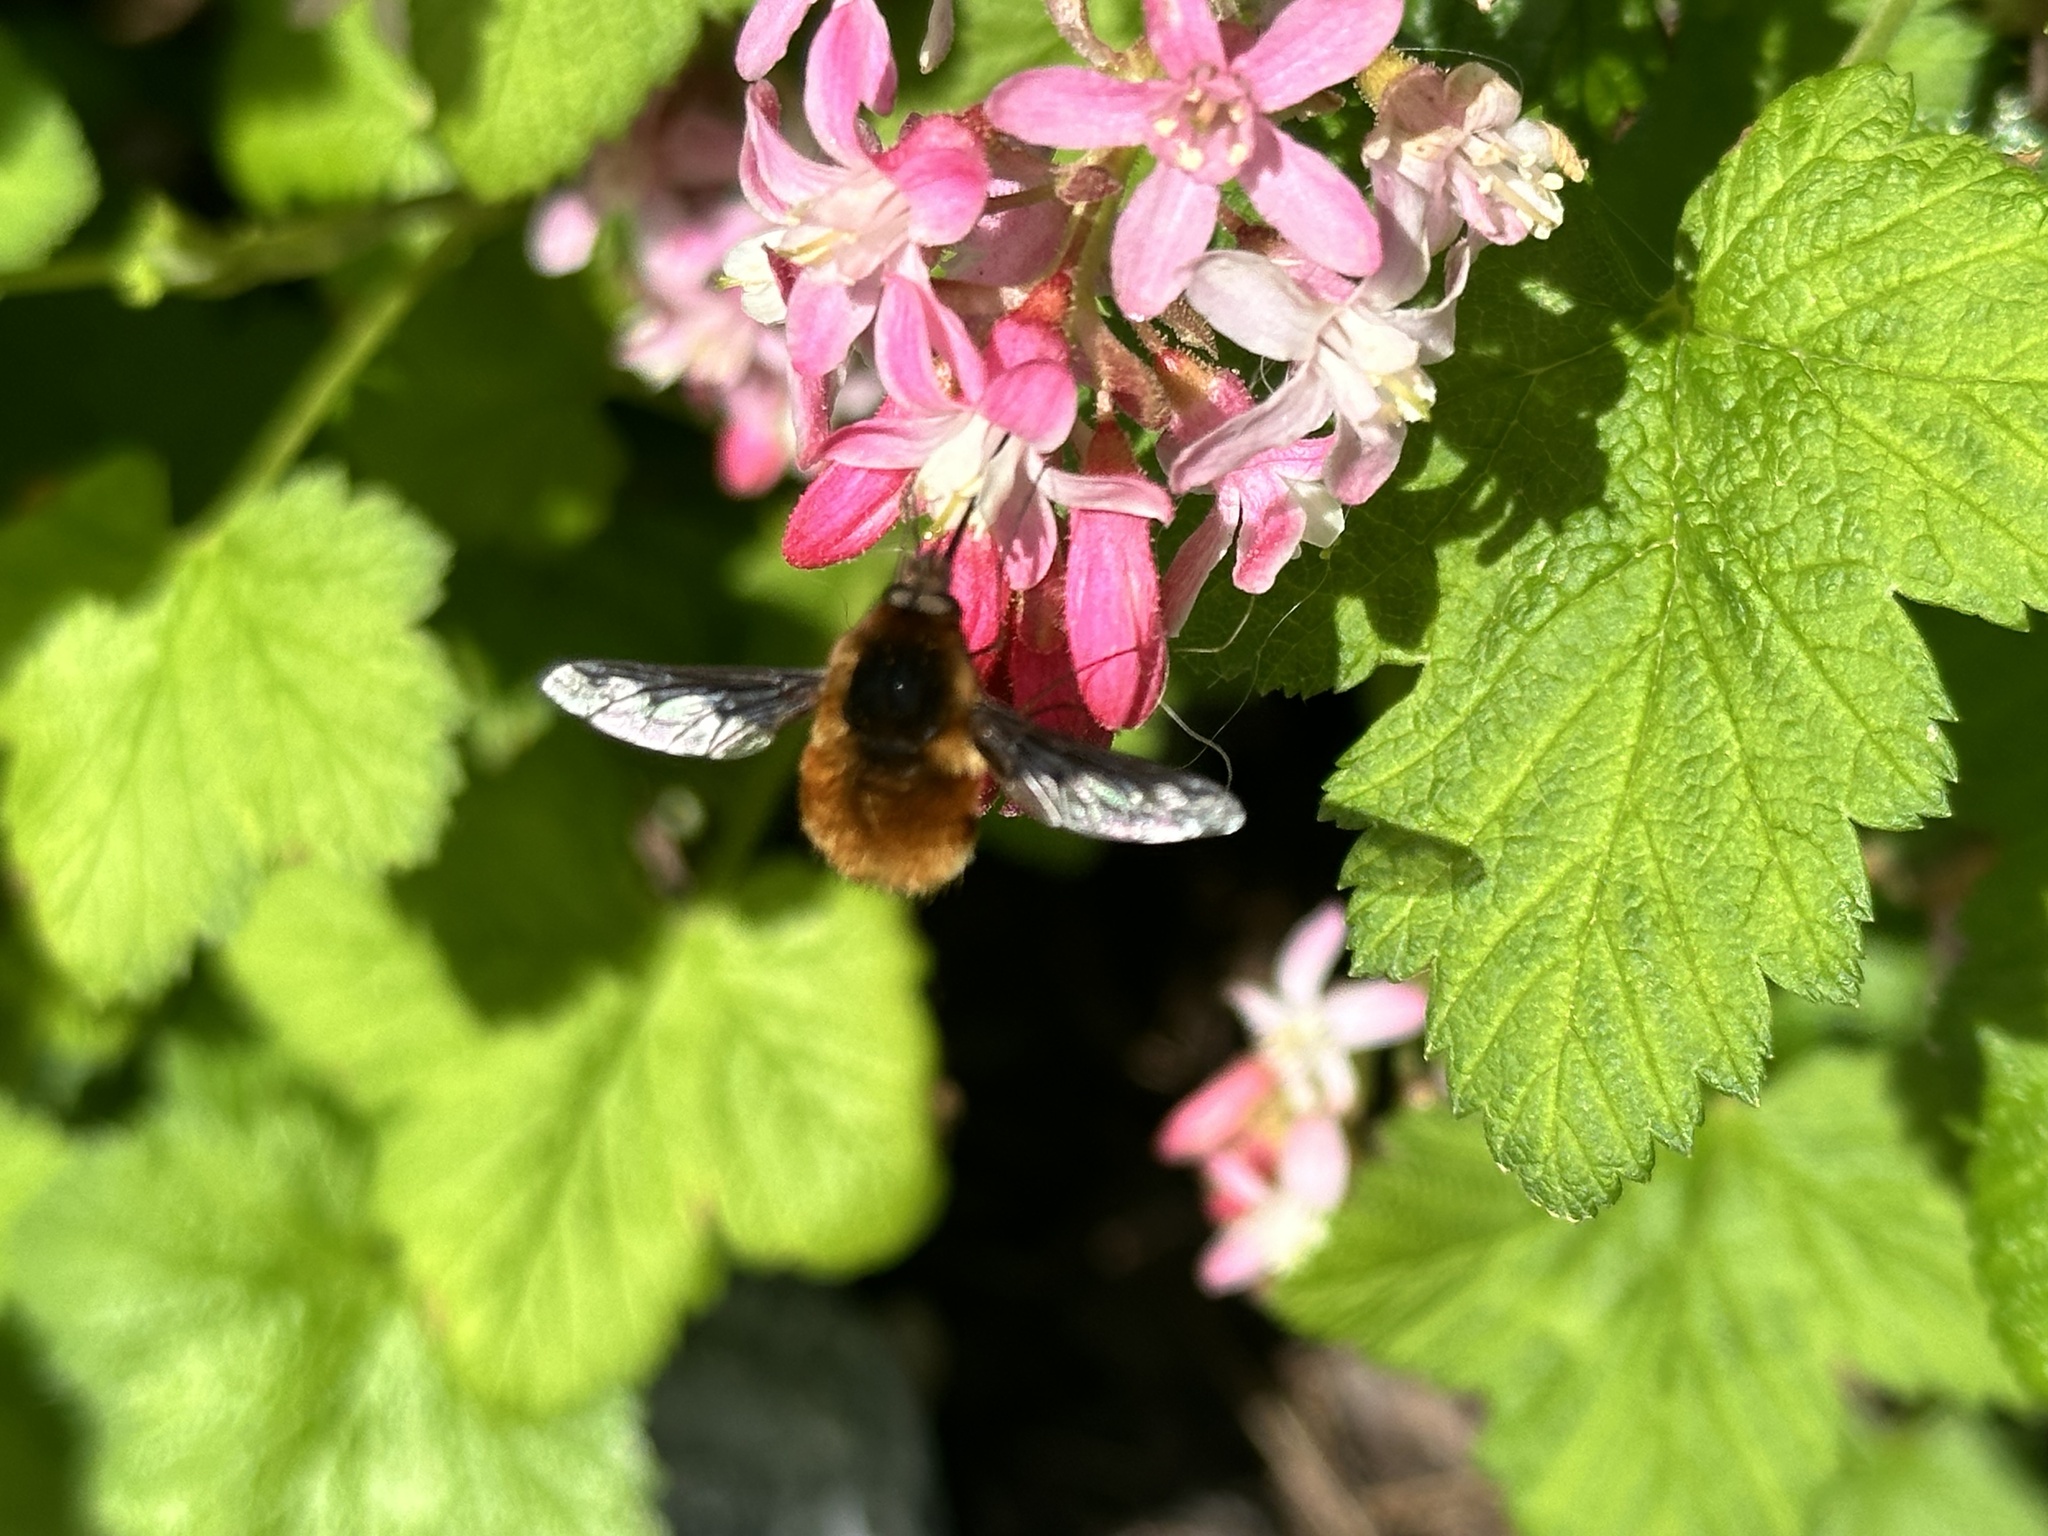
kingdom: Animalia
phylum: Arthropoda
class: Insecta
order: Diptera
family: Bombyliidae
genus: Bombylius
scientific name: Bombylius major
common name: Bee fly
